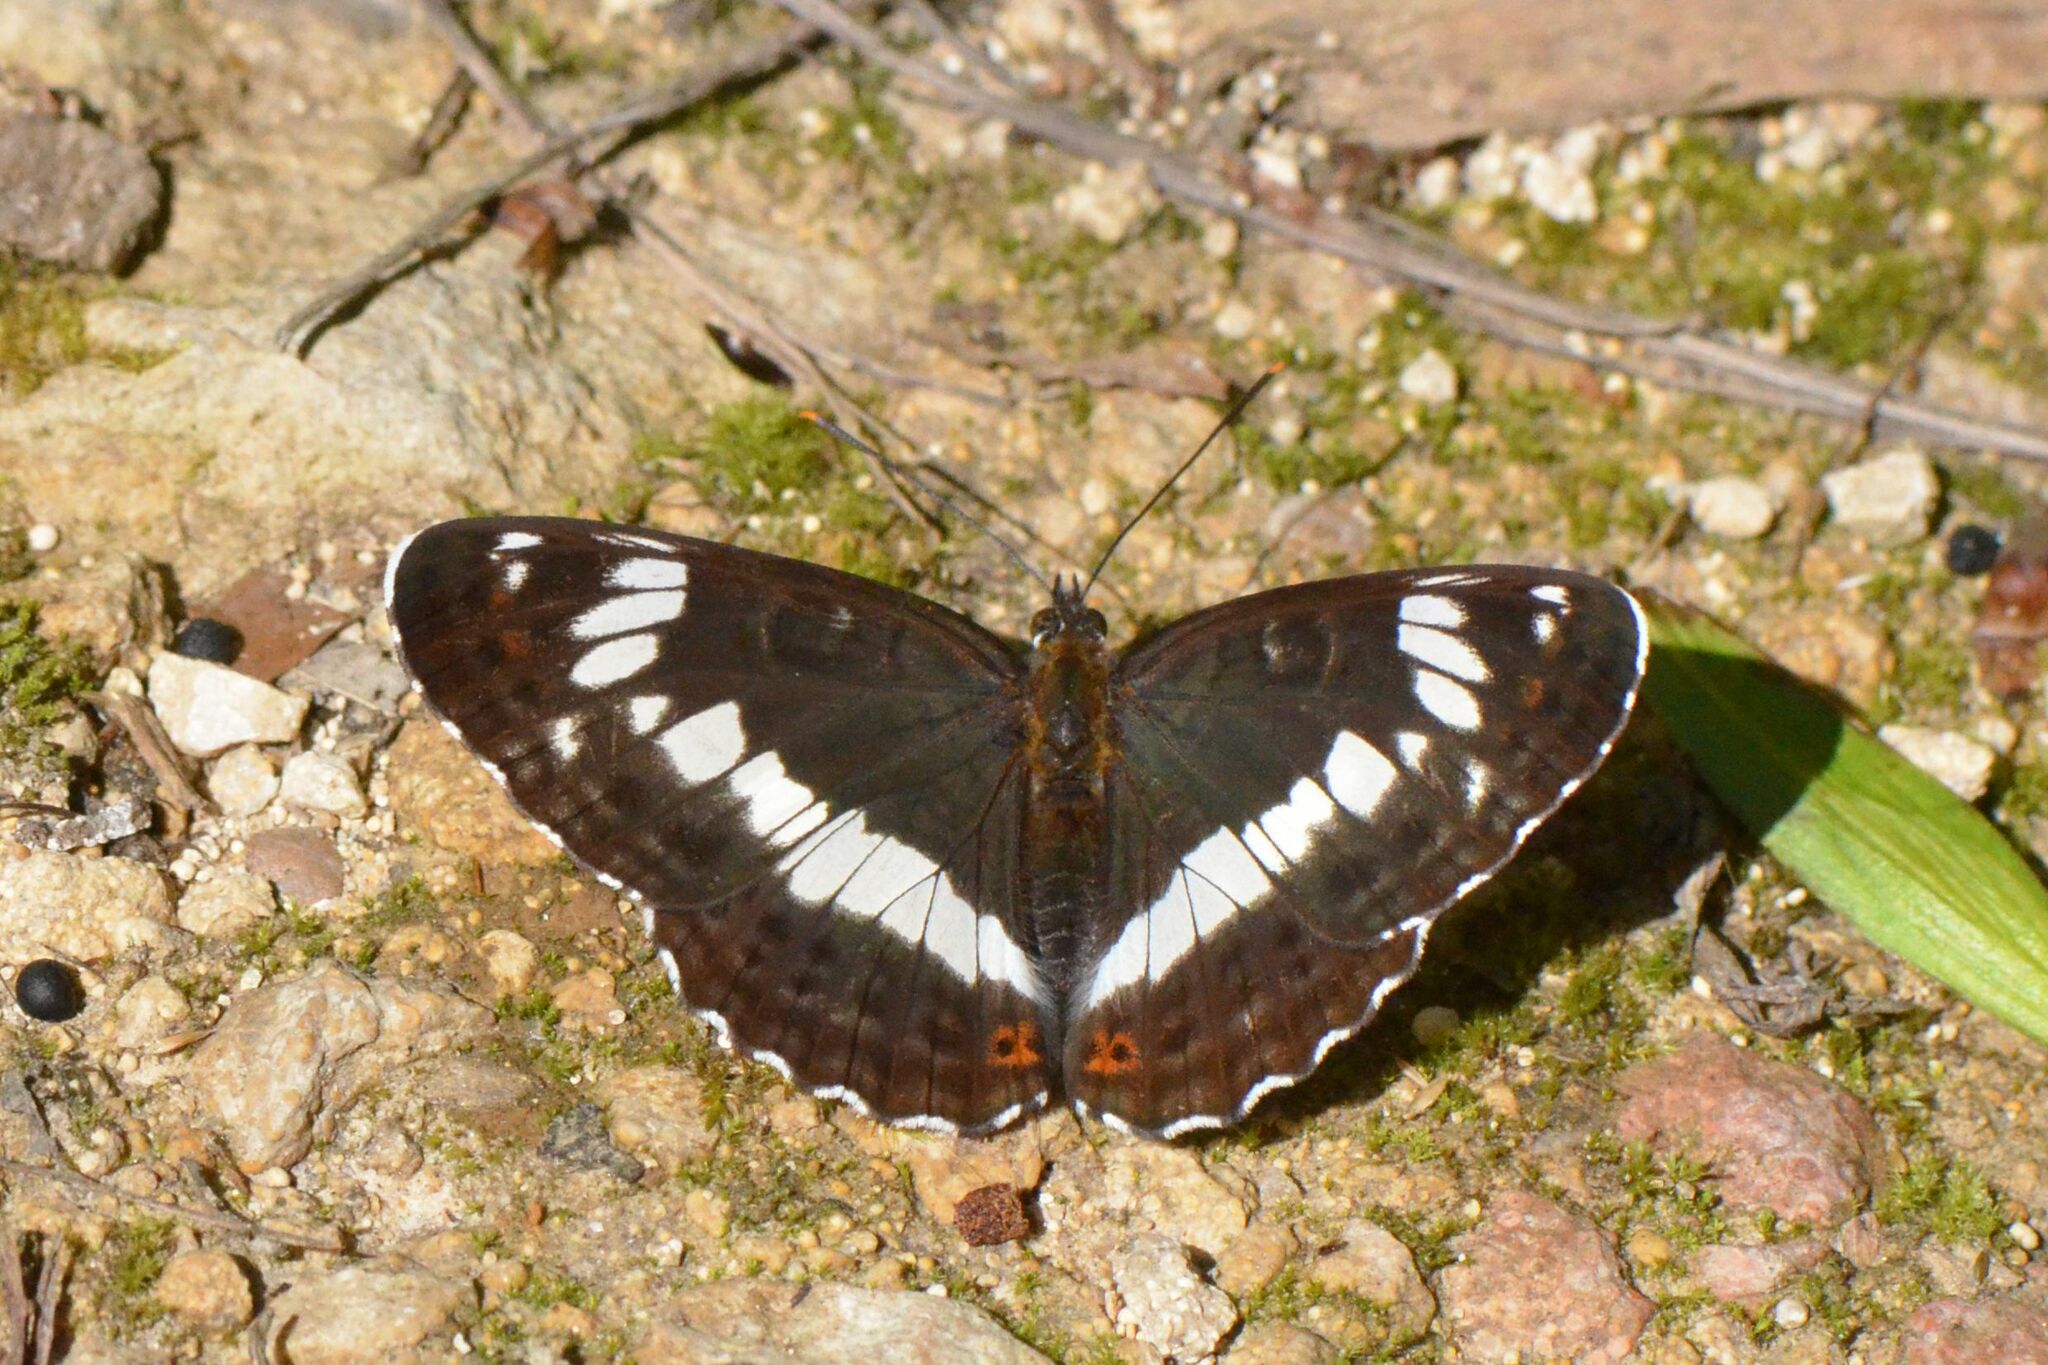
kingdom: Animalia
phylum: Arthropoda
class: Insecta
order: Lepidoptera
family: Nymphalidae
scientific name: Nymphalidae
